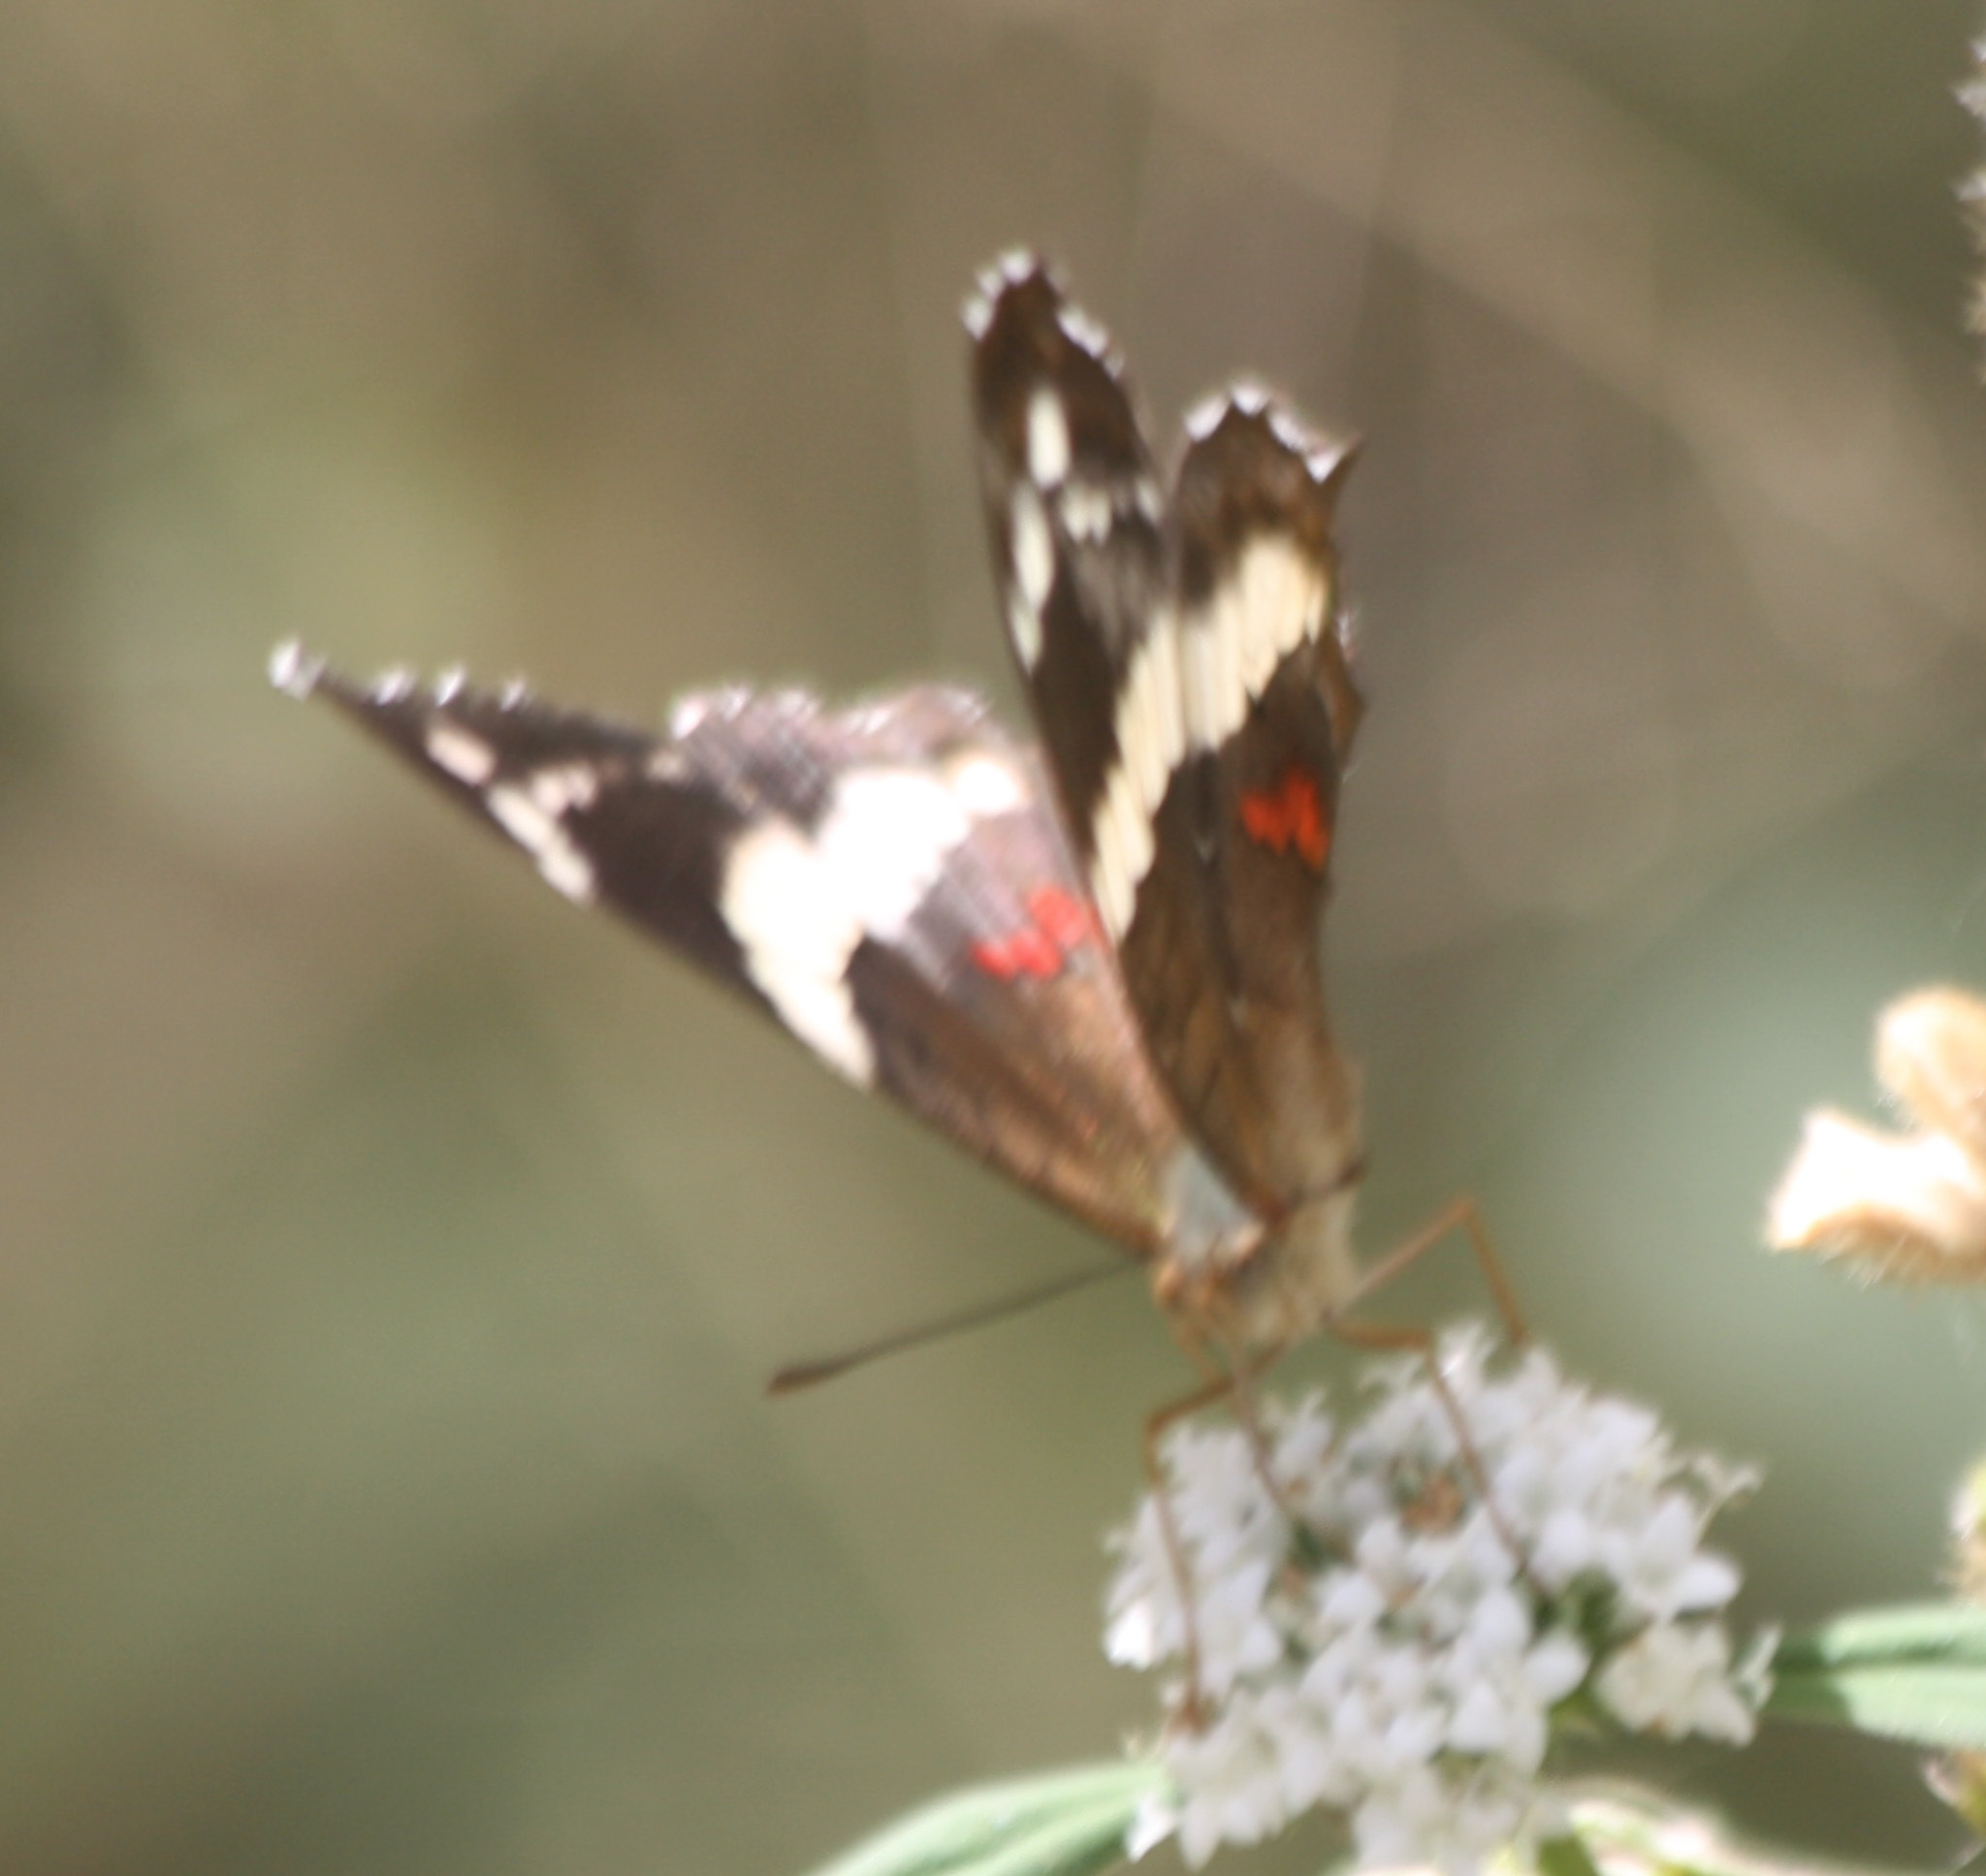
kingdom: Animalia
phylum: Arthropoda
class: Insecta
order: Lepidoptera
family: Nymphalidae
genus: Anartia
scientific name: Anartia fatima
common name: Banded peacock
